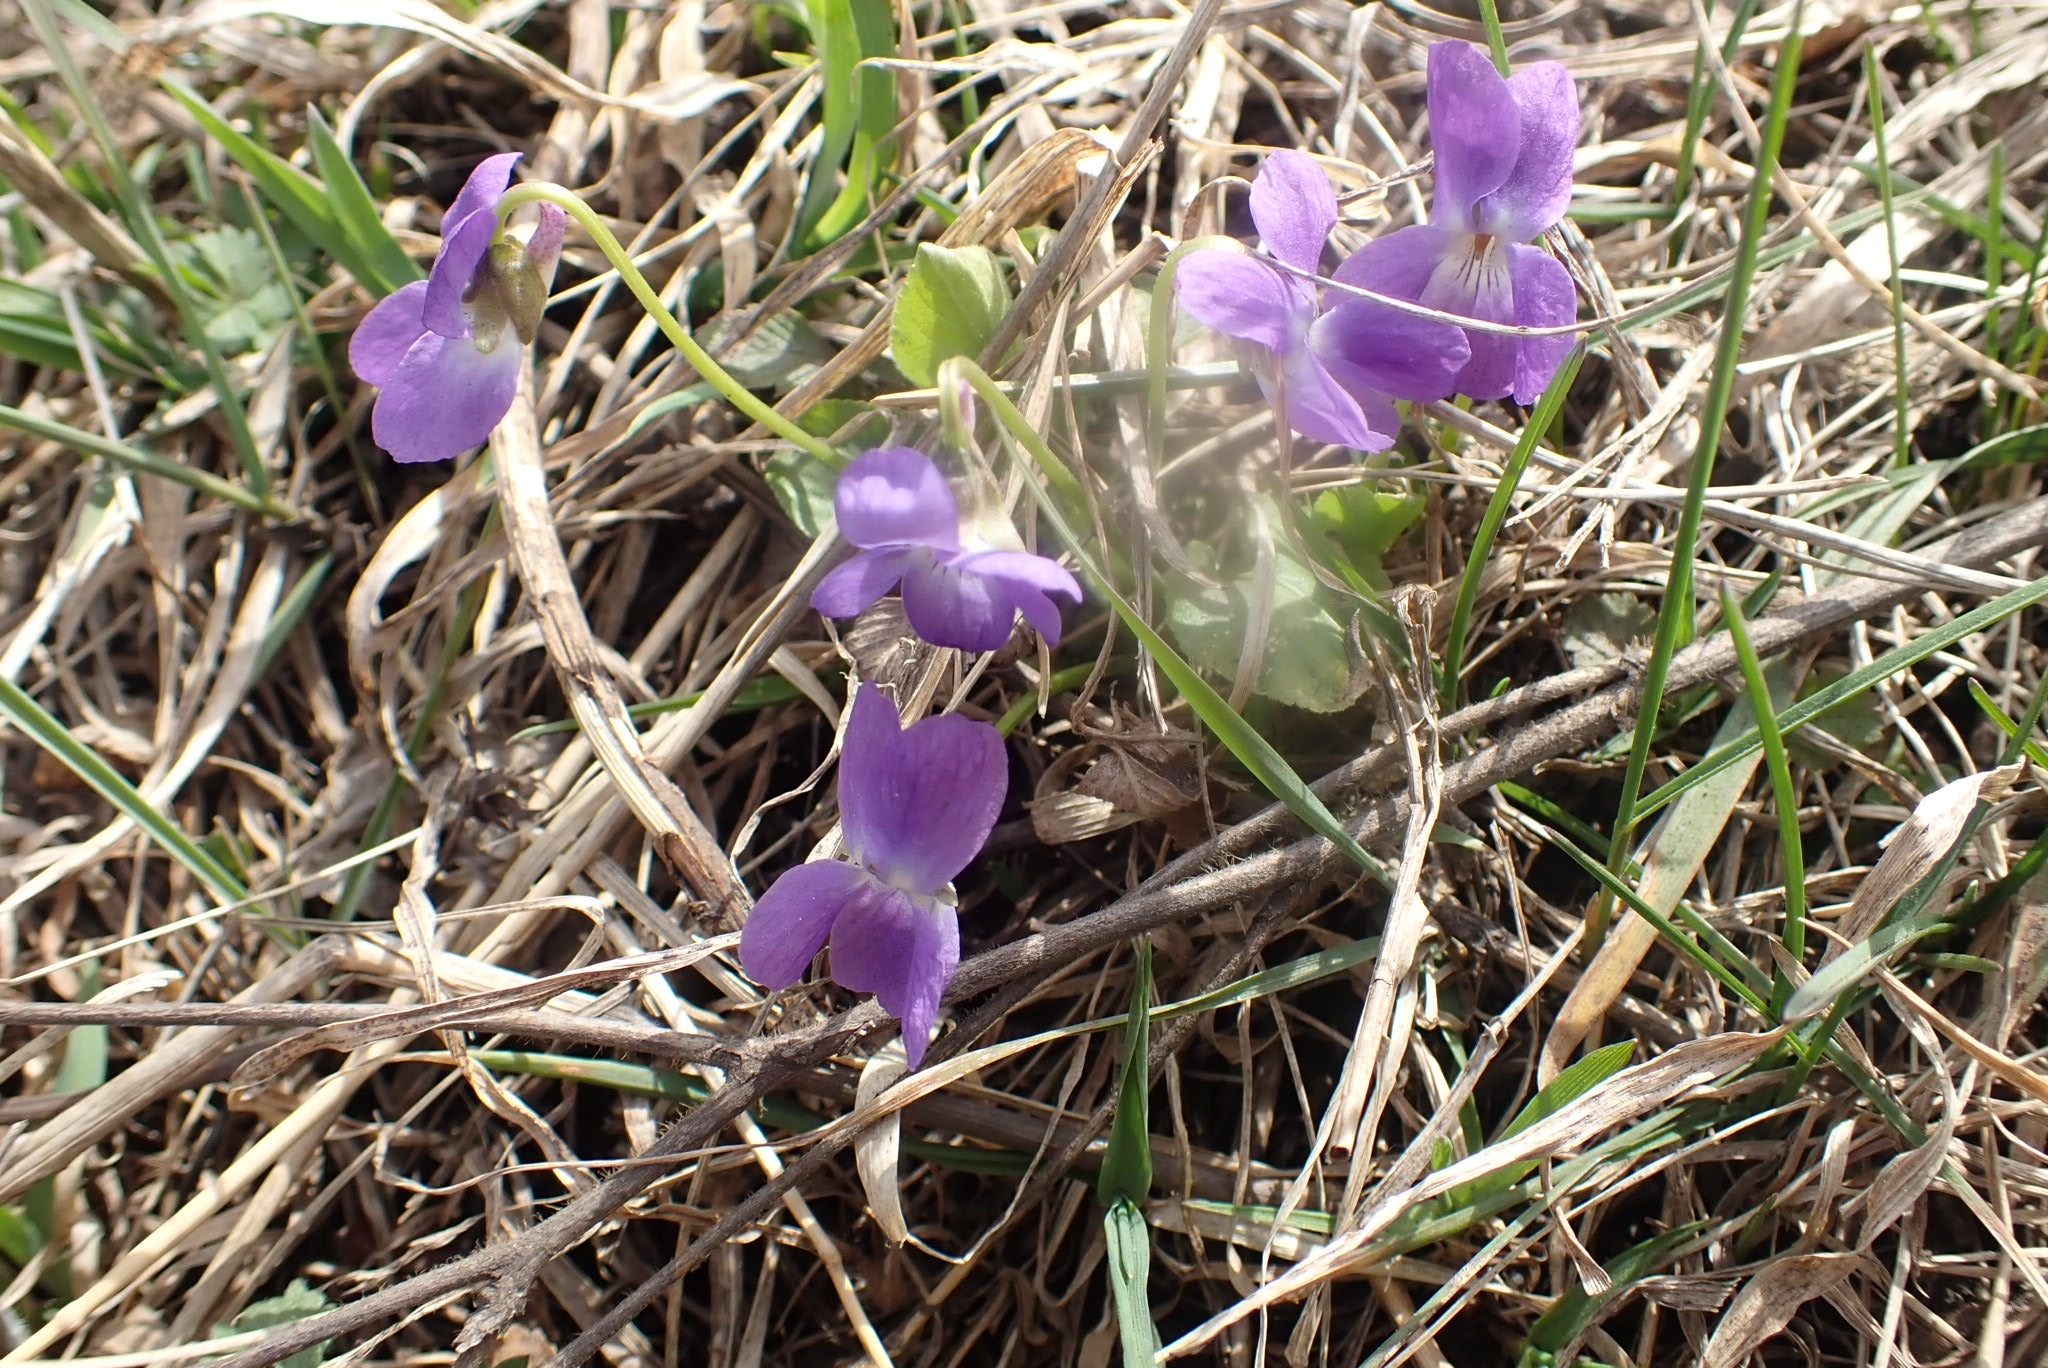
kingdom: Plantae
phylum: Tracheophyta
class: Magnoliopsida
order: Malpighiales
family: Violaceae
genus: Viola
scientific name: Viola hirta
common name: Hairy violet
